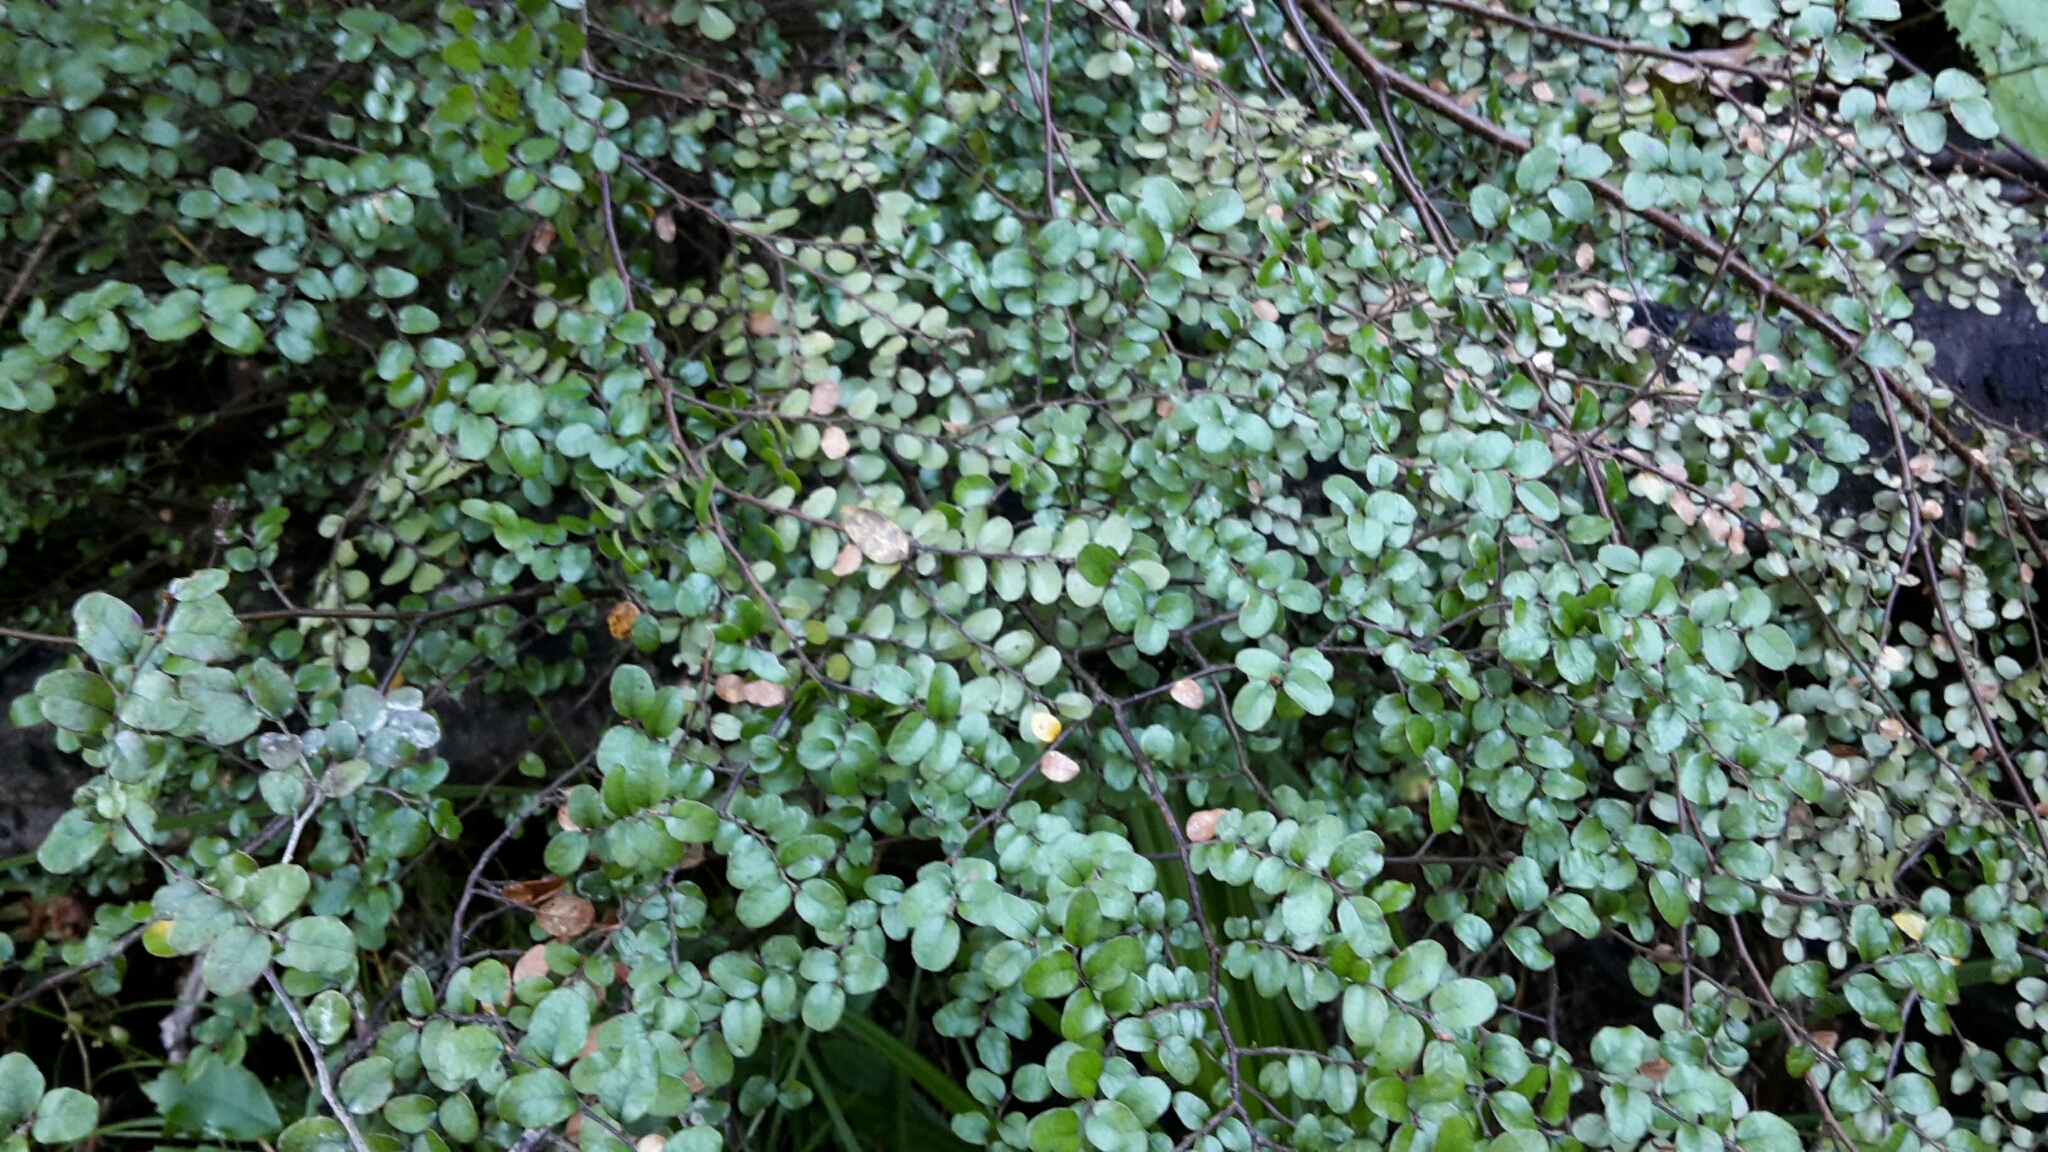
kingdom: Plantae
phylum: Tracheophyta
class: Magnoliopsida
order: Fagales
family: Nothofagaceae
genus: Nothofagus
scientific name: Nothofagus solandri
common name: Black beech
